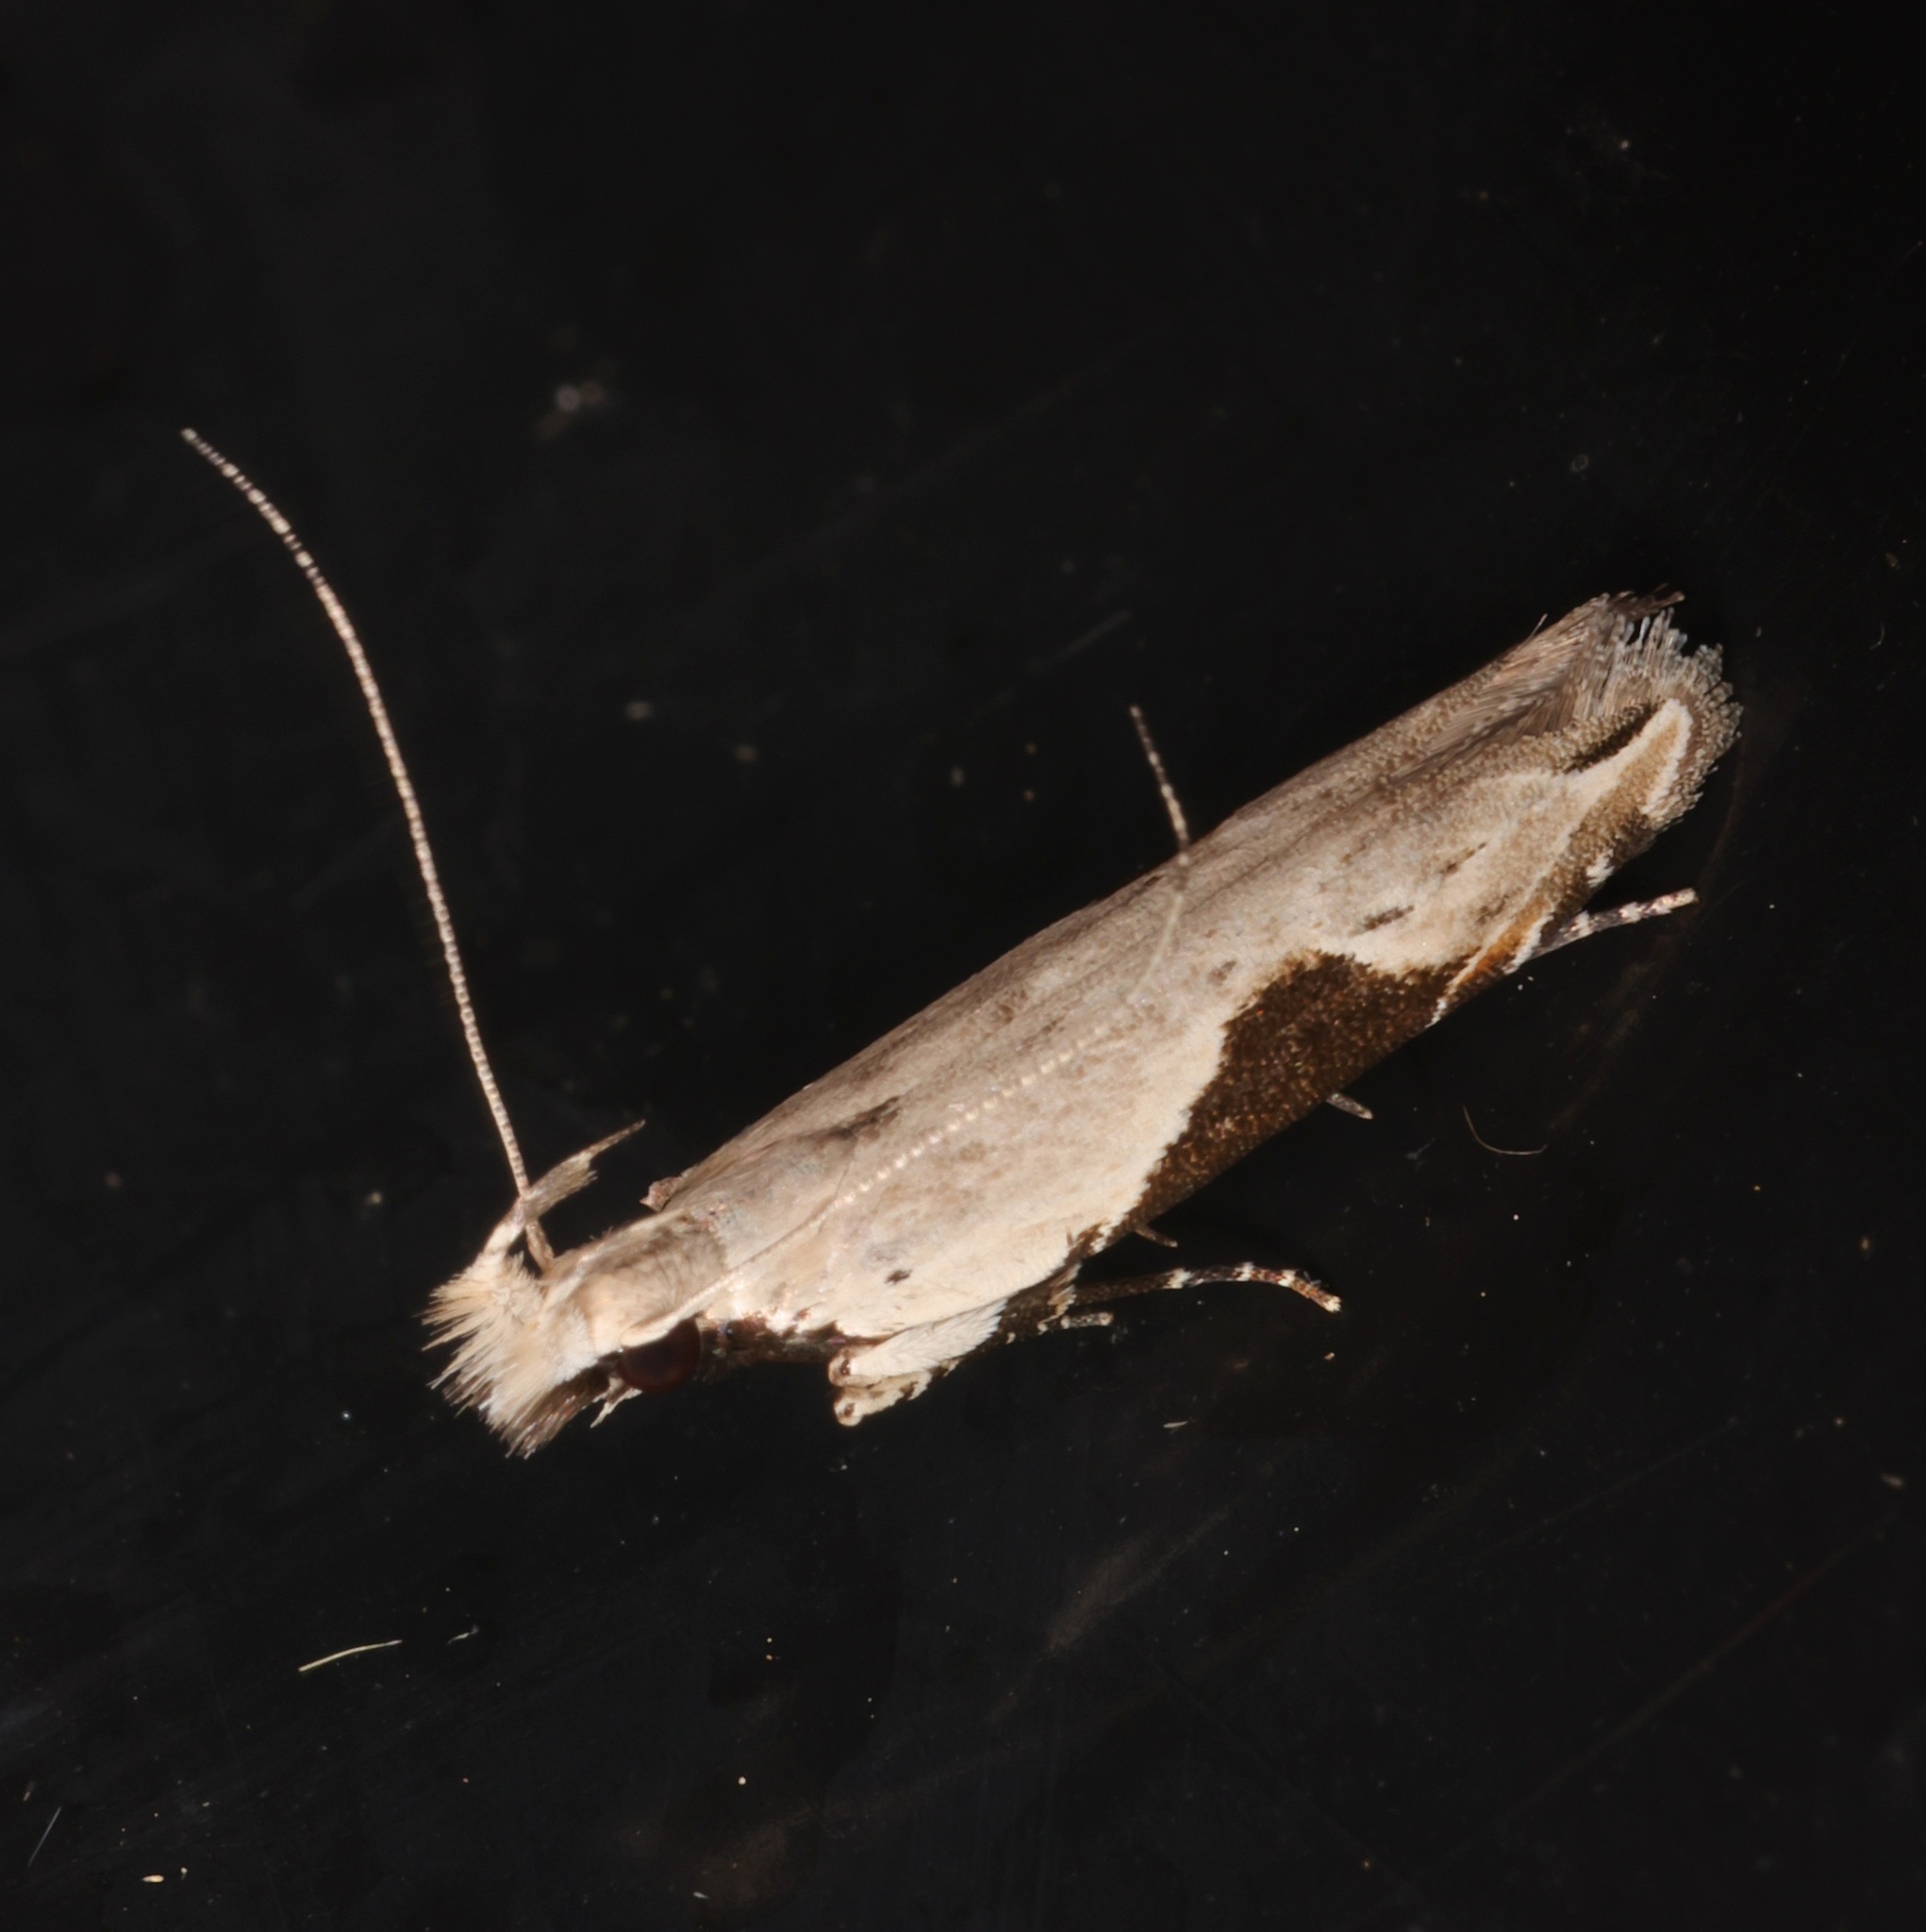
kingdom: Animalia
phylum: Arthropoda
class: Insecta
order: Lepidoptera
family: Gelechiidae
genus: Hypatima
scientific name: Hypatima verticosa
